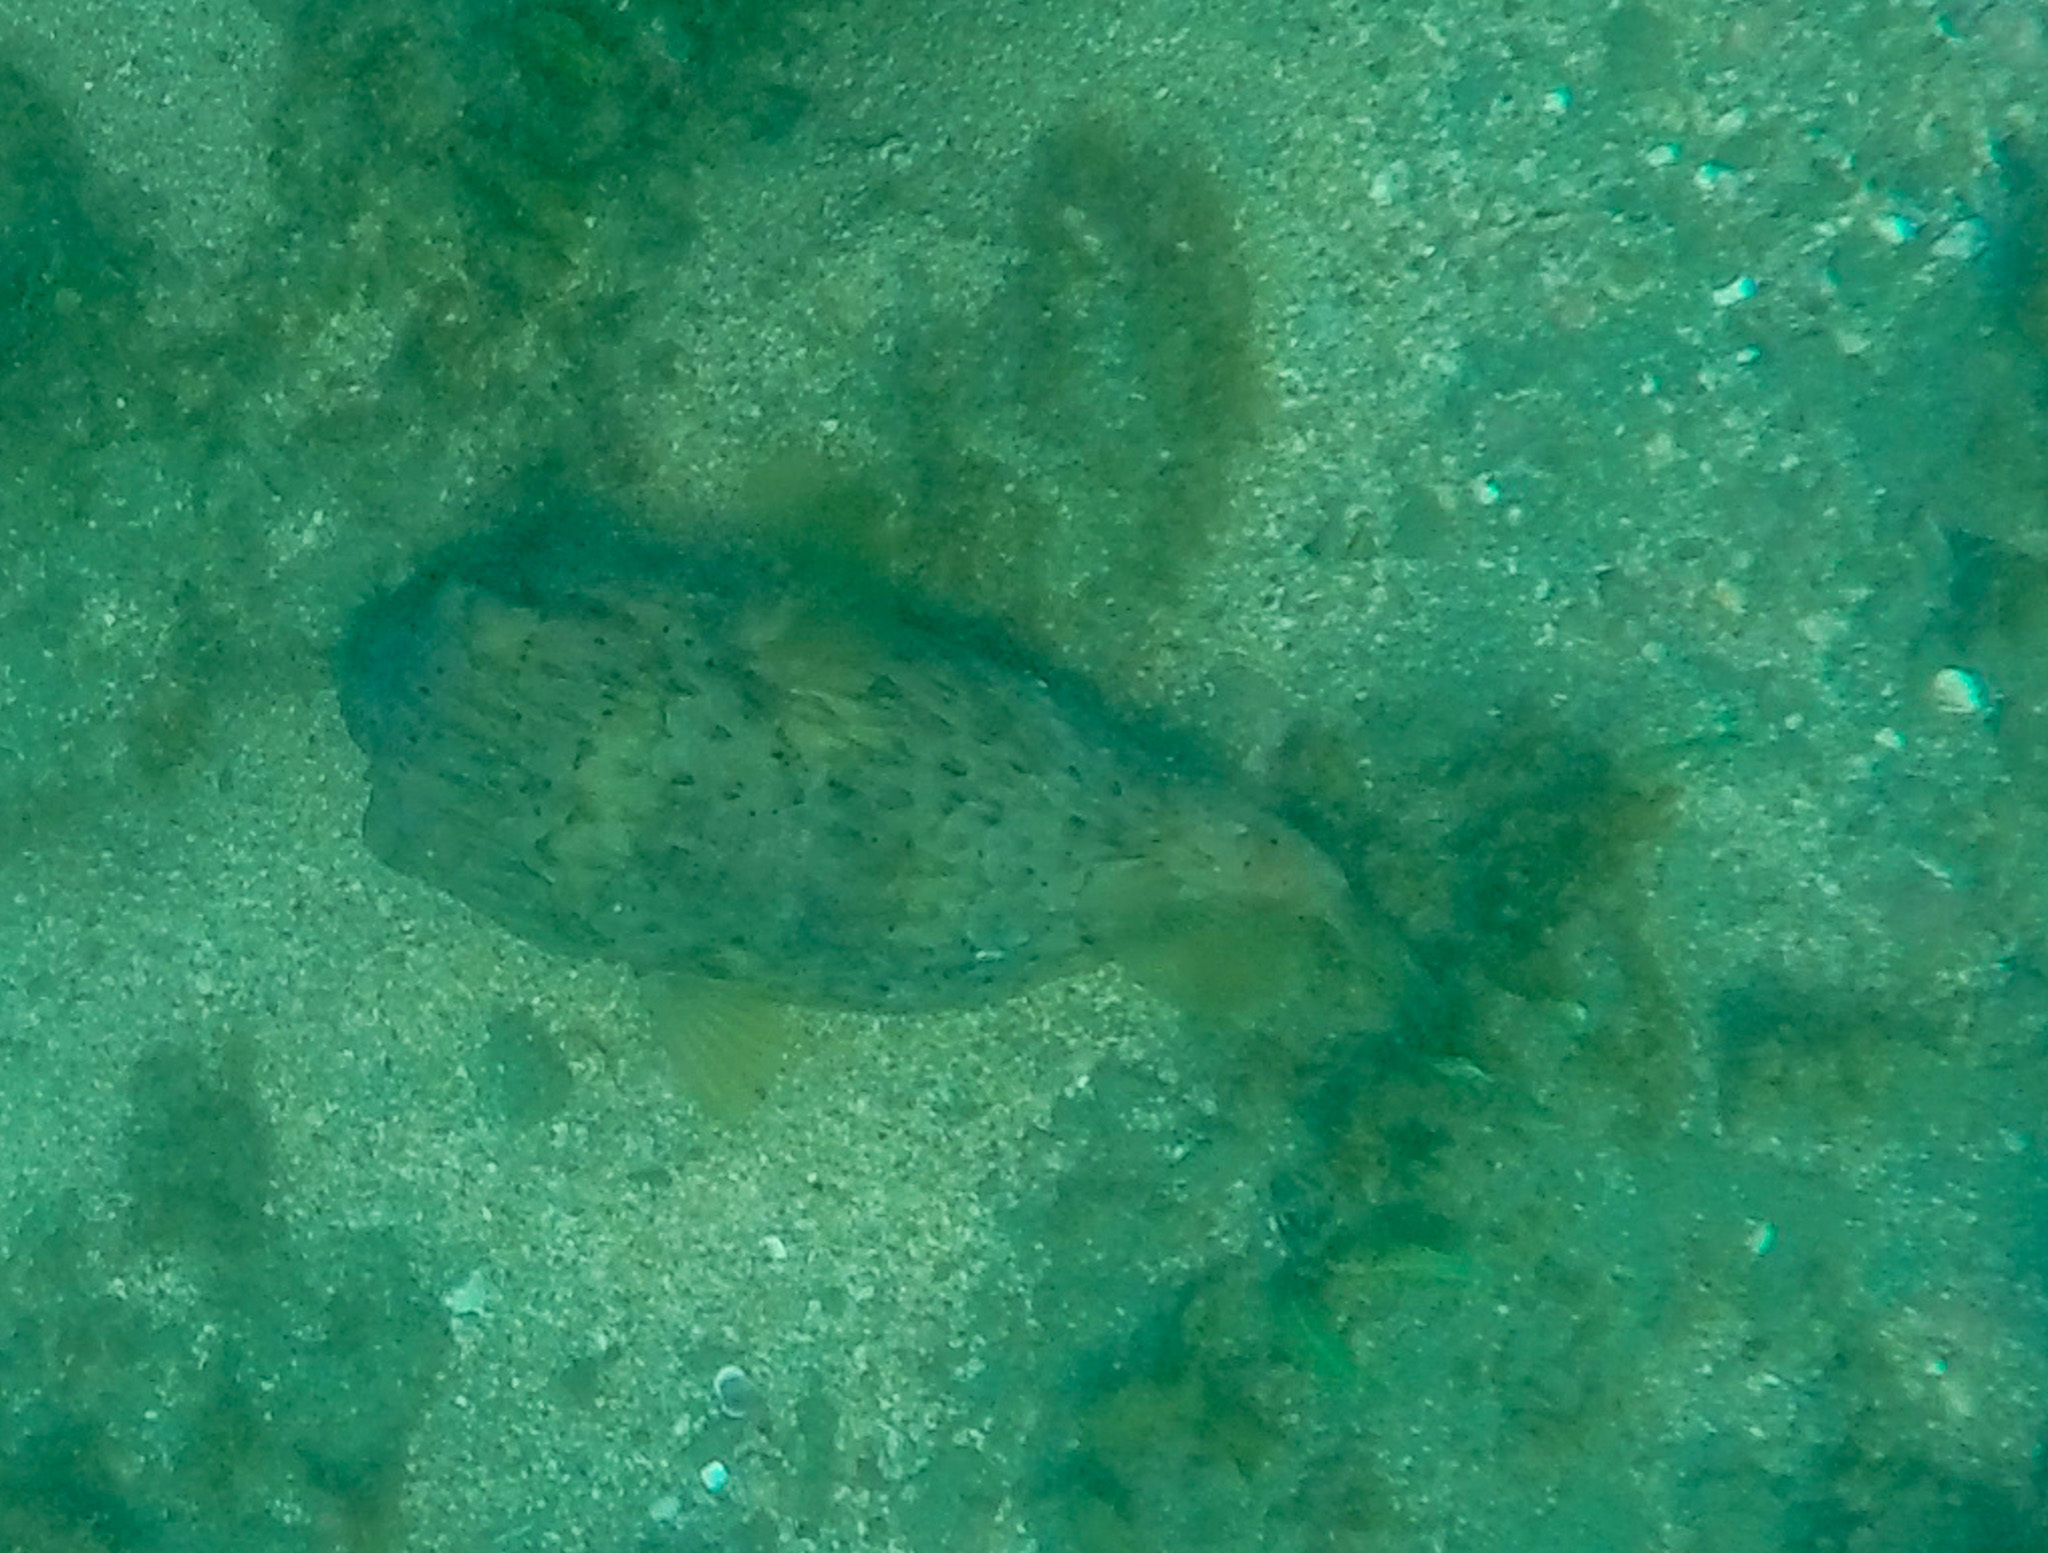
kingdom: Animalia
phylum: Chordata
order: Tetraodontiformes
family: Diodontidae
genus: Diodon
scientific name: Diodon holocanthus
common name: Balloonfish
